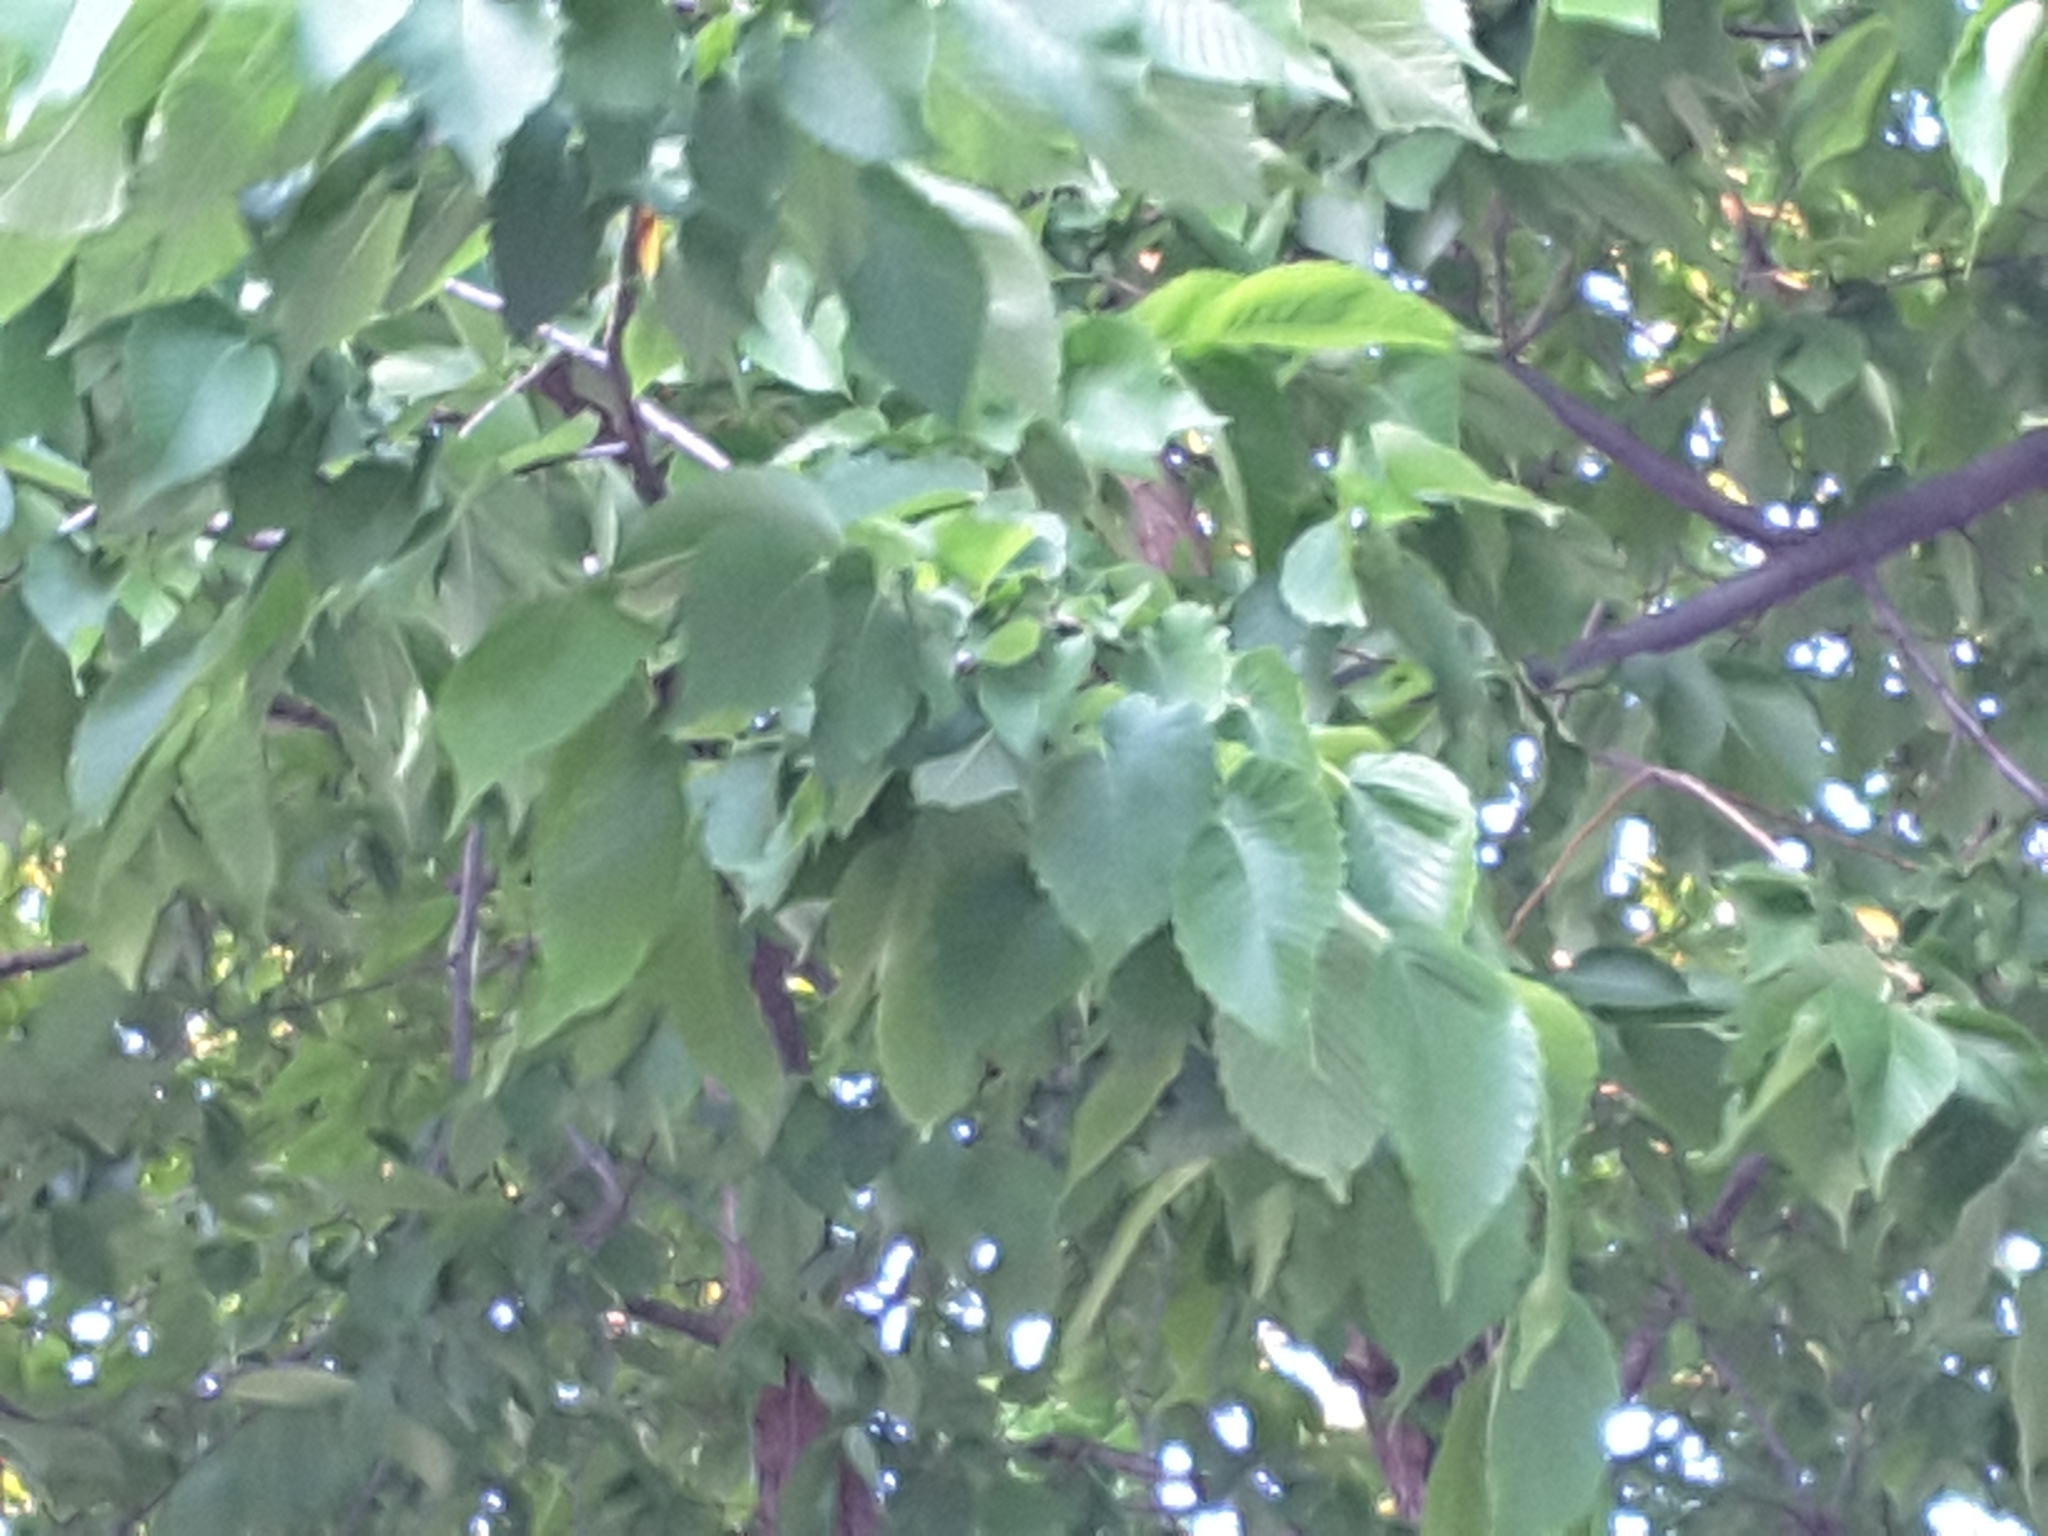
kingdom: Plantae
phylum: Tracheophyta
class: Magnoliopsida
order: Rosales
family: Ulmaceae
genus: Ulmus
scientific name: Ulmus americana
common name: American elm
